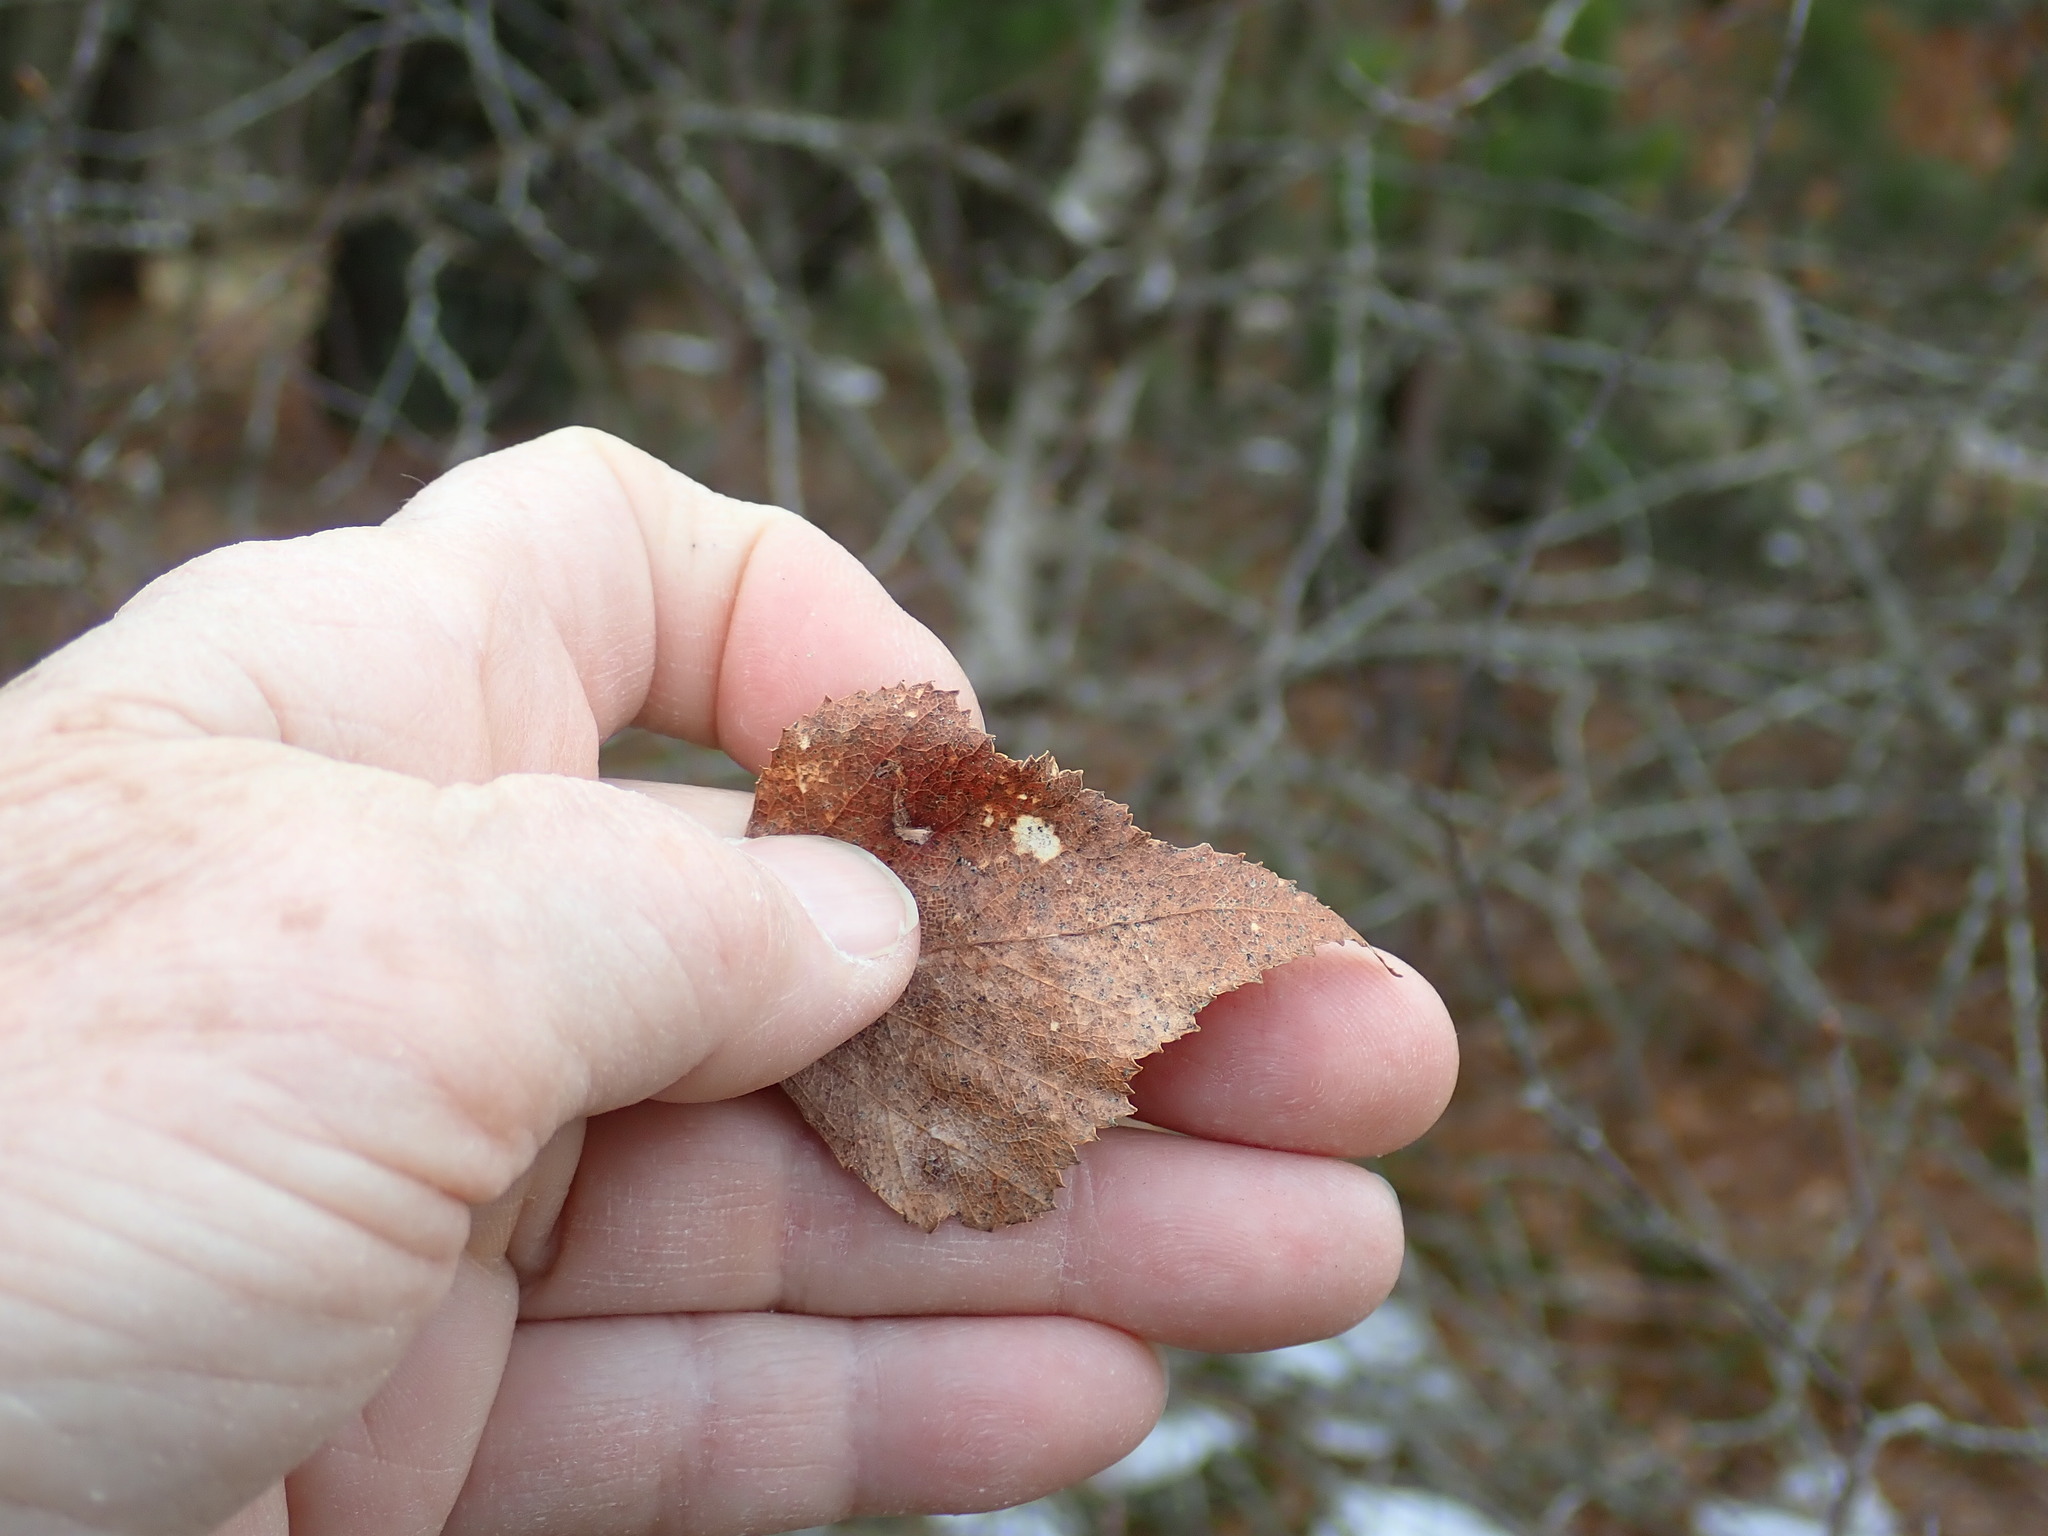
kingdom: Plantae
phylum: Tracheophyta
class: Magnoliopsida
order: Fagales
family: Betulaceae
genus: Betula
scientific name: Betula populifolia
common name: Fire birch
